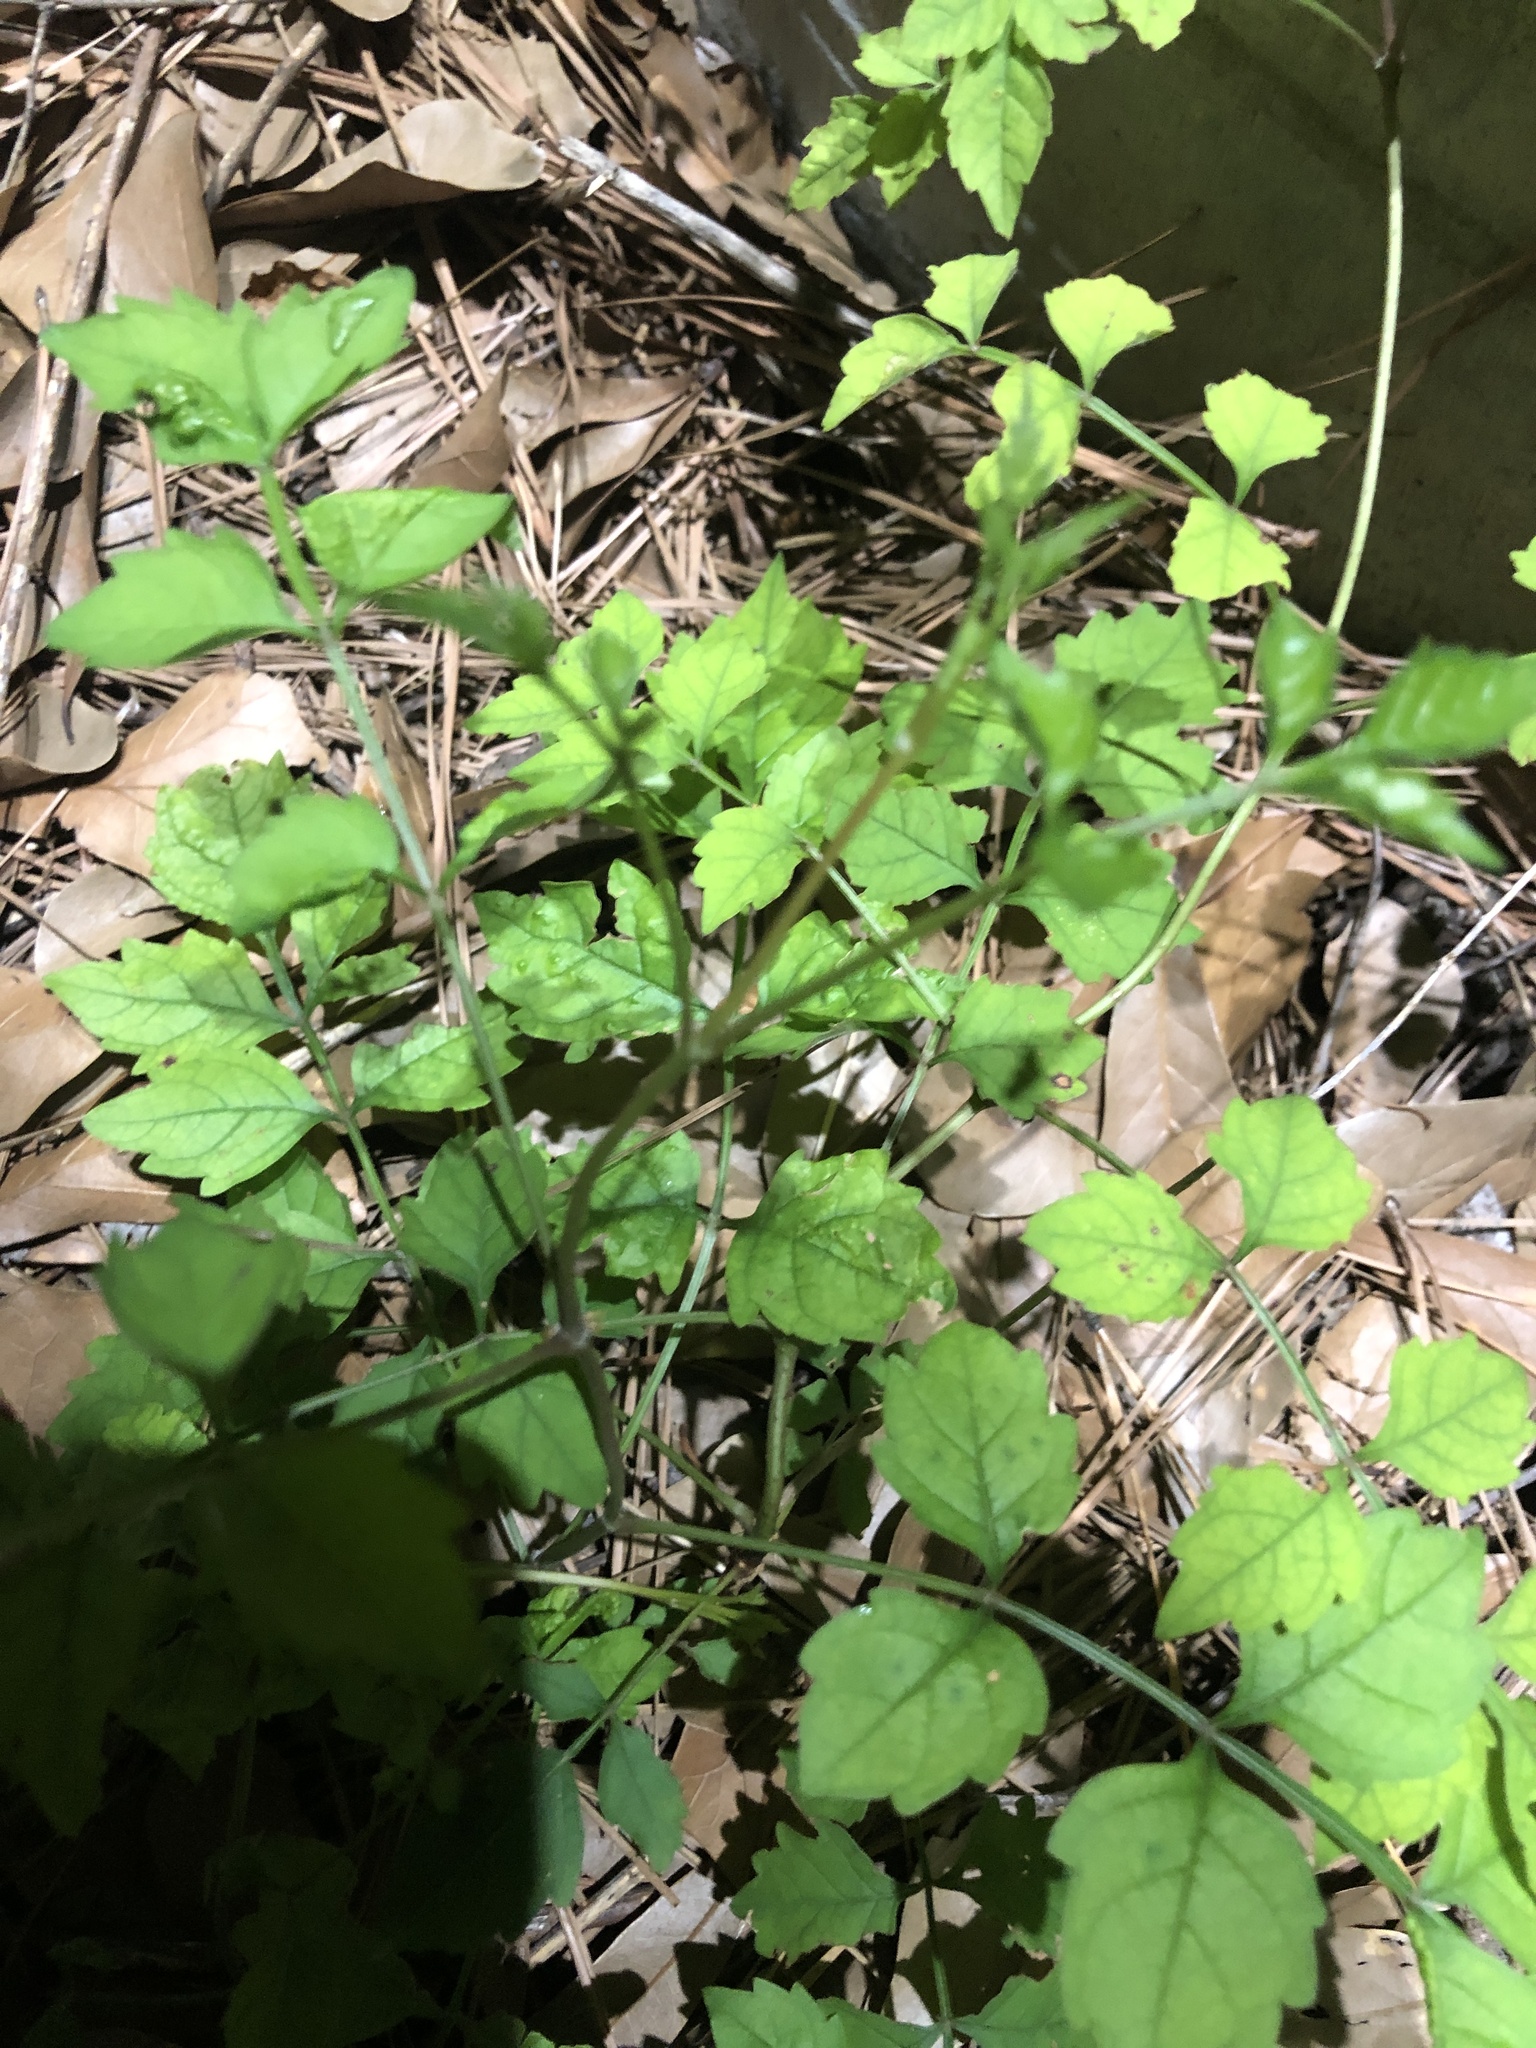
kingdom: Plantae
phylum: Tracheophyta
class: Magnoliopsida
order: Lamiales
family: Bignoniaceae
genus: Campsis
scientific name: Campsis radicans
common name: Trumpet-creeper
